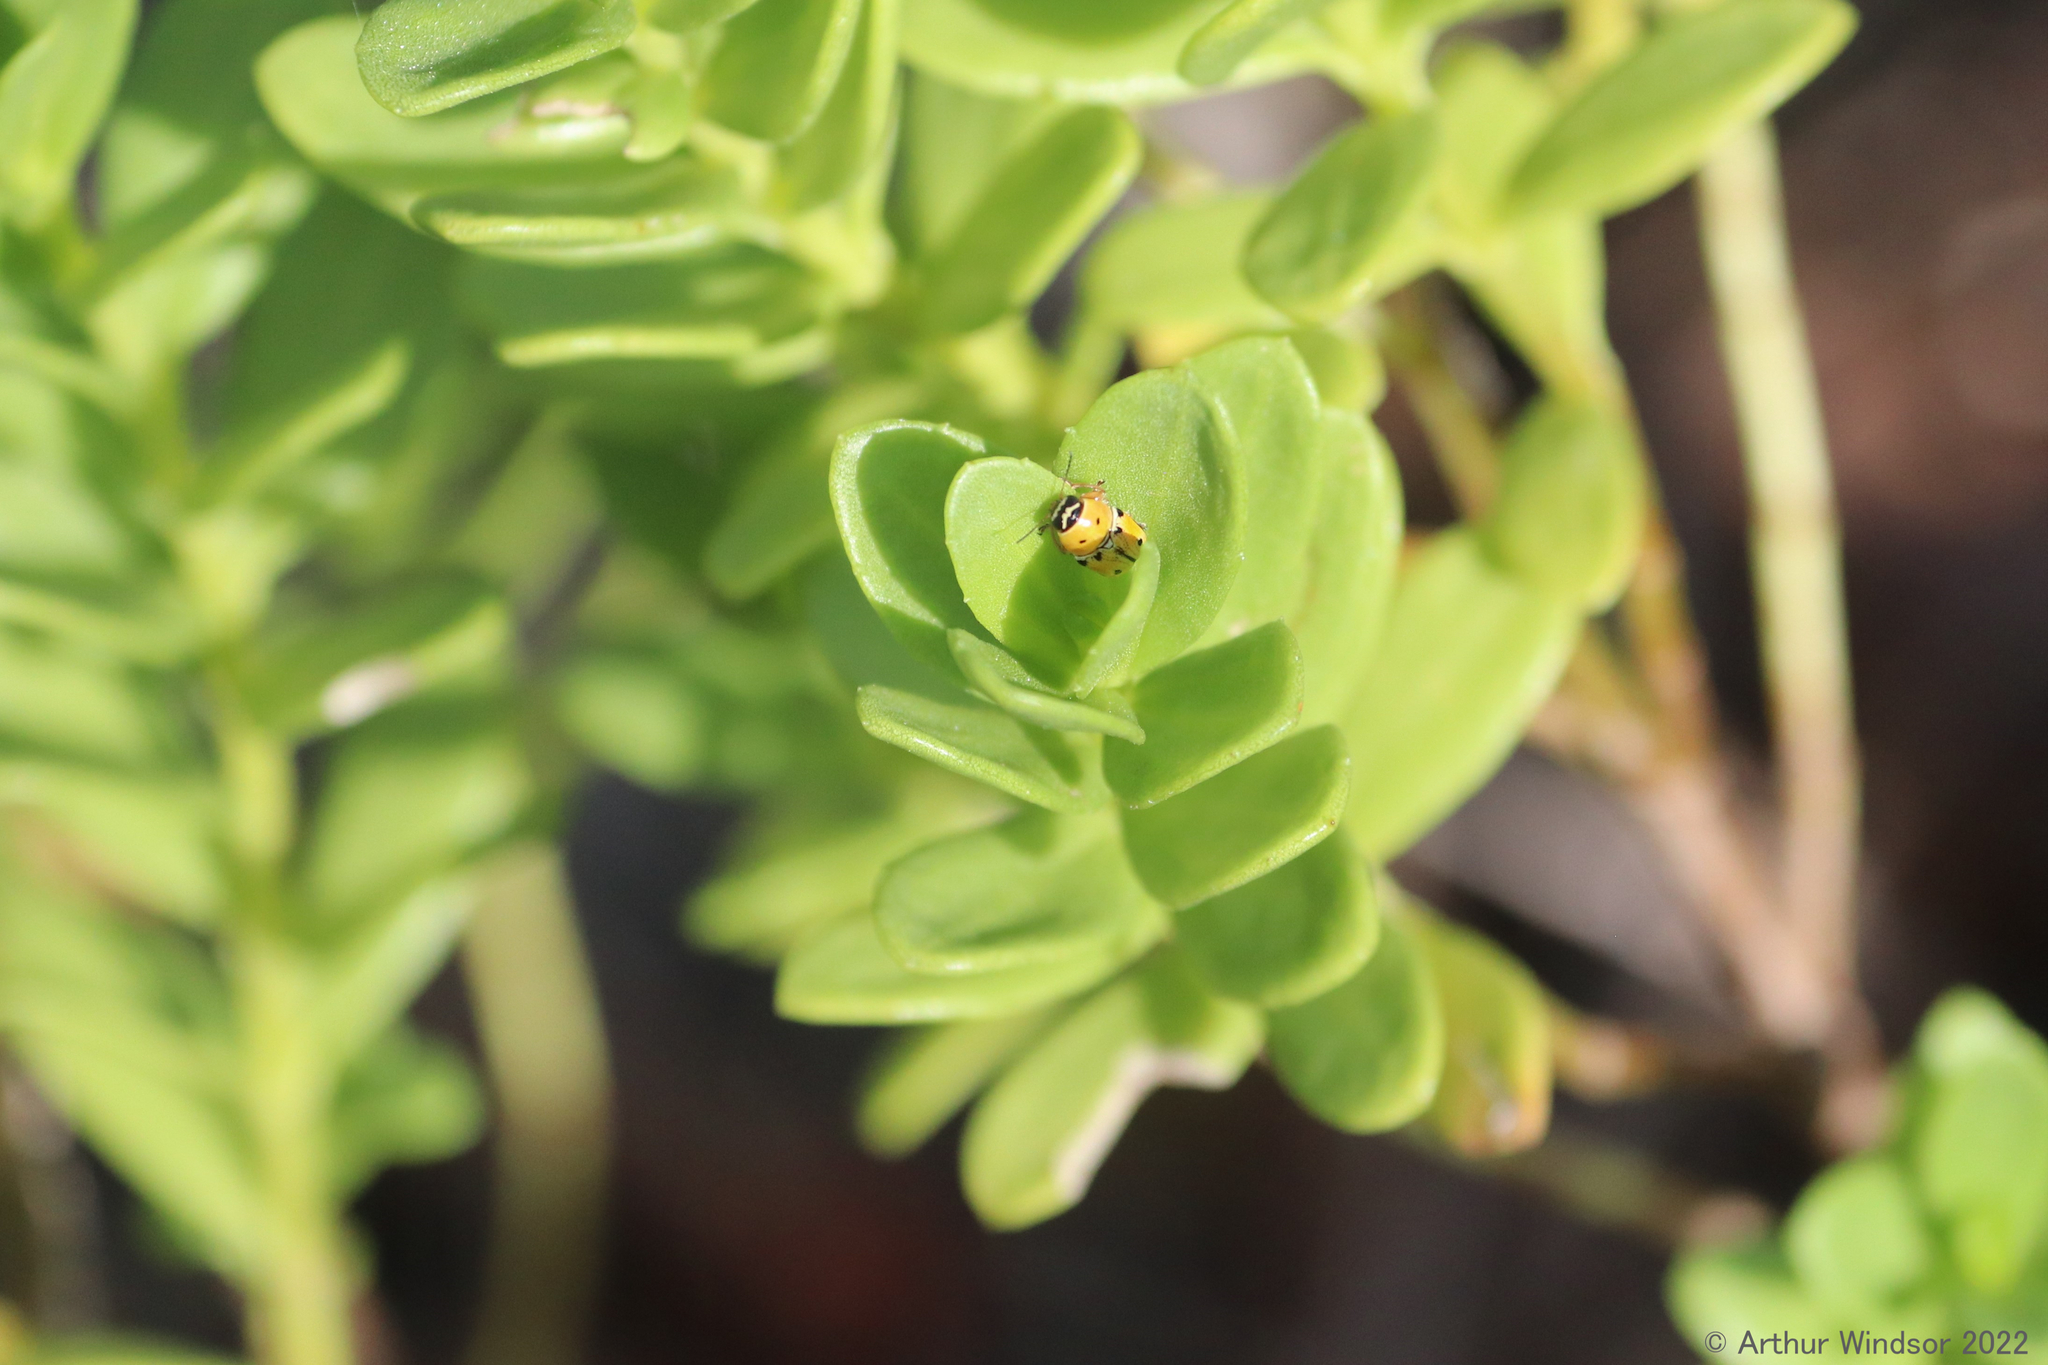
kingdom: Animalia
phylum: Arthropoda
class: Insecta
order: Coleoptera
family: Chrysomelidae
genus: Griburius
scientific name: Griburius larvatus
